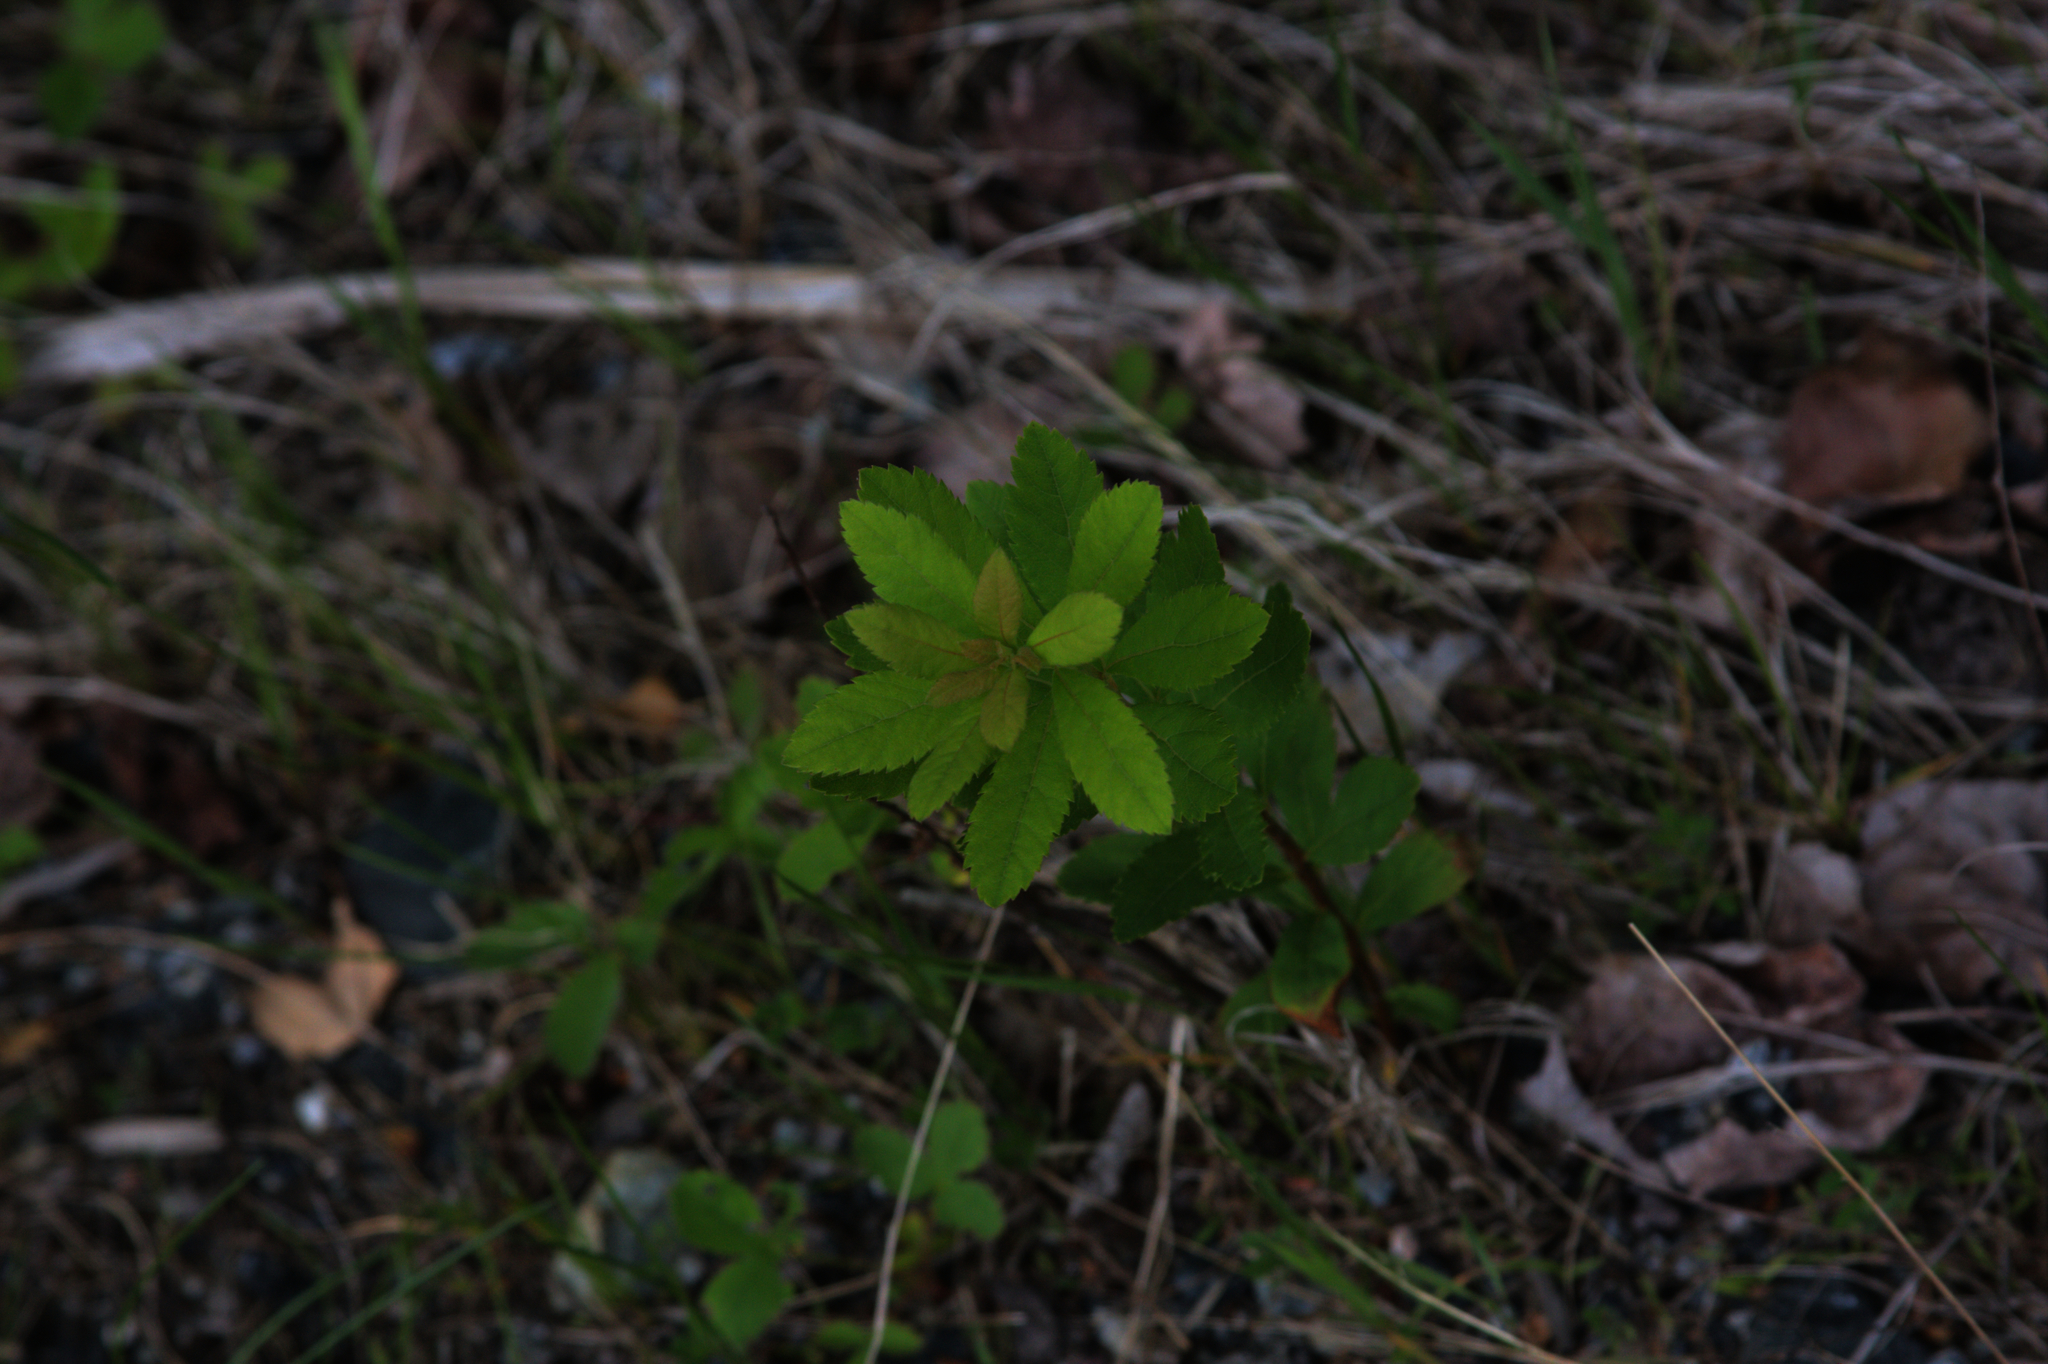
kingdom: Plantae
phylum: Tracheophyta
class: Magnoliopsida
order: Rosales
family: Rosaceae
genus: Spiraea
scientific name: Spiraea alba
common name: Pale bridewort
